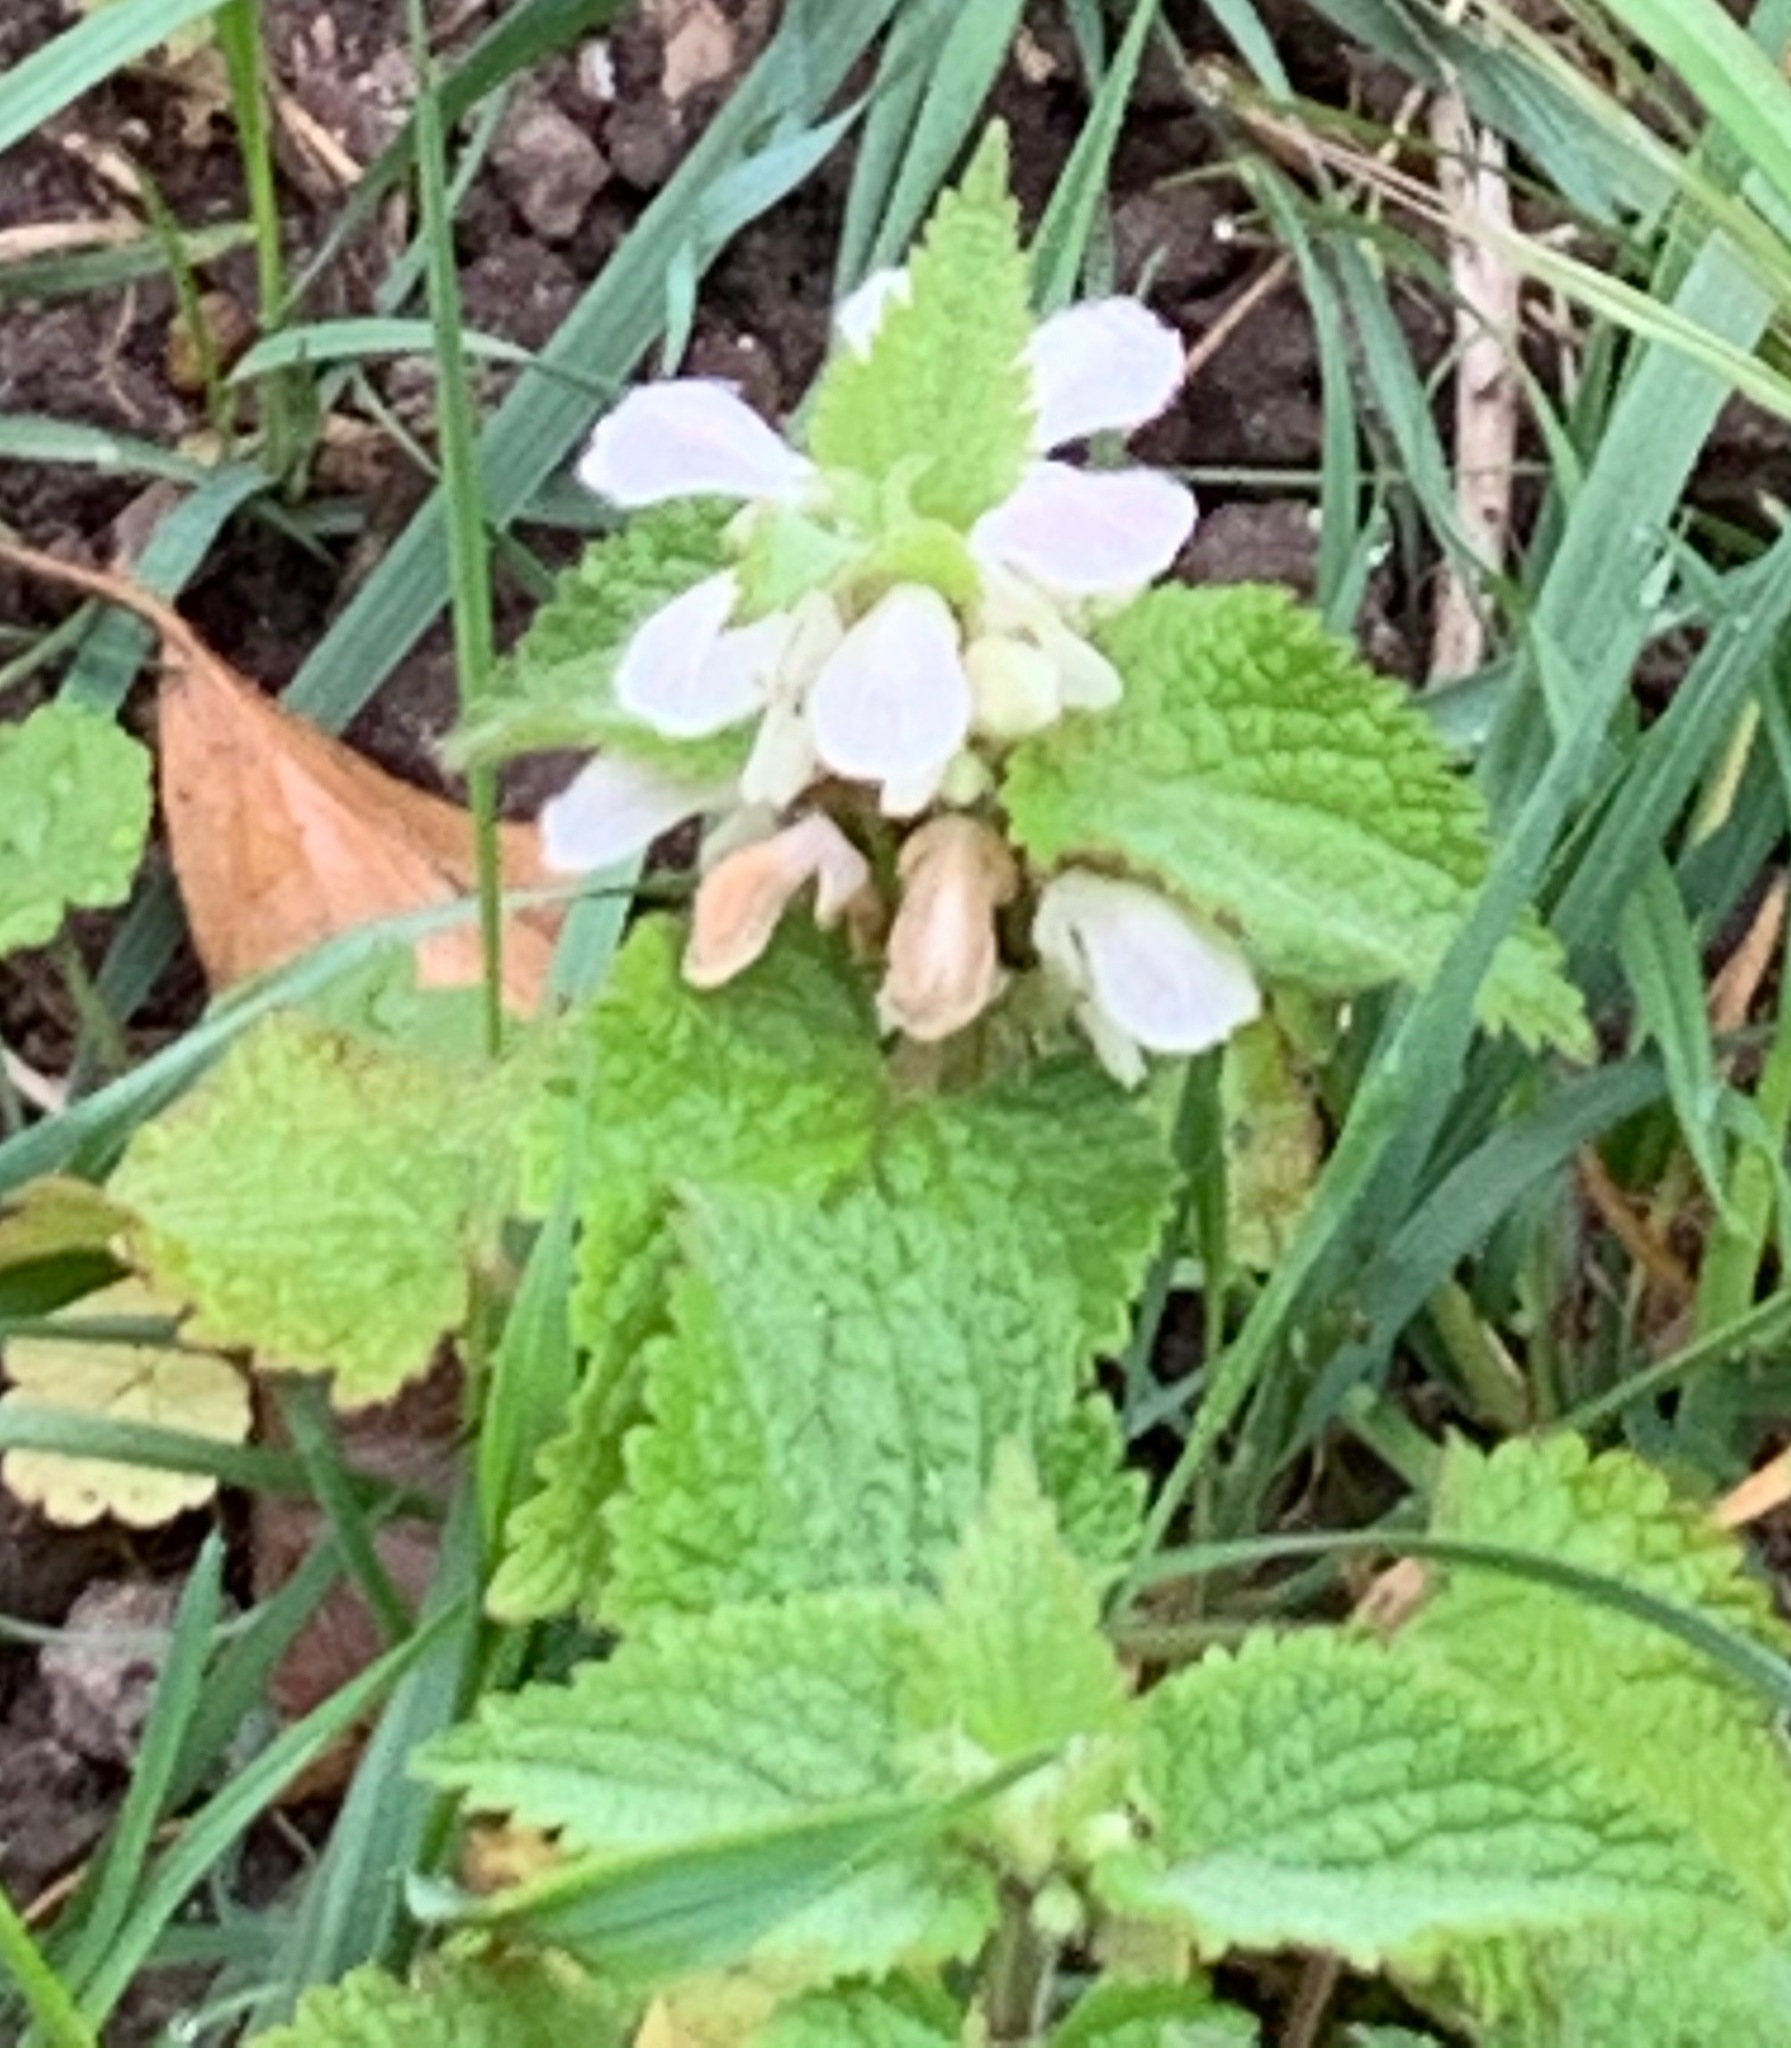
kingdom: Plantae
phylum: Tracheophyta
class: Magnoliopsida
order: Lamiales
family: Lamiaceae
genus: Lamium
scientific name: Lamium album
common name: White dead-nettle
